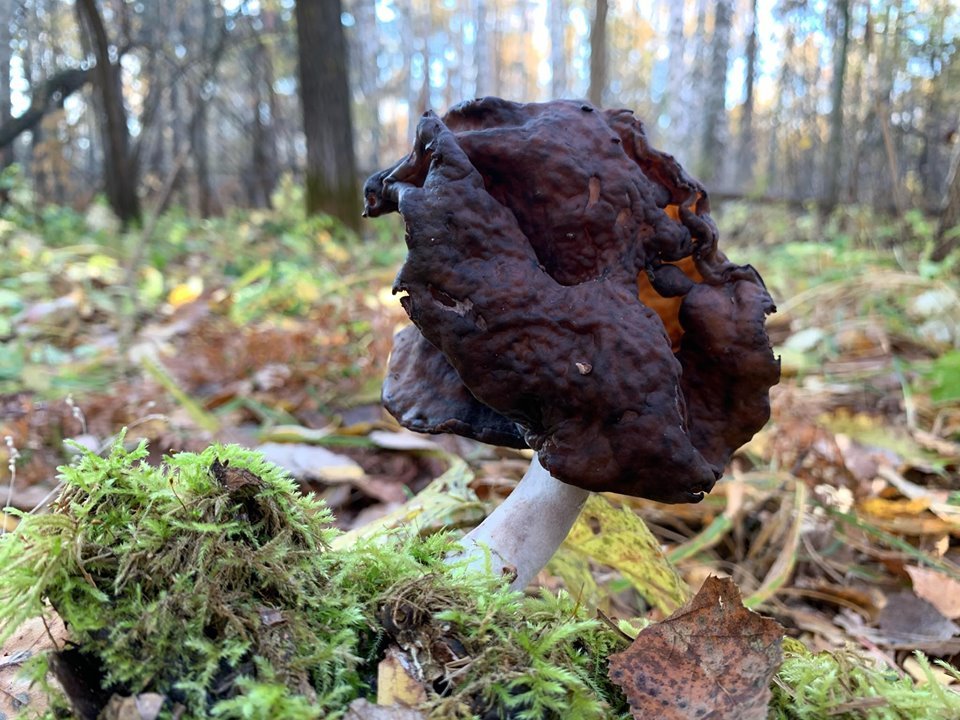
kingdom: Fungi
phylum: Ascomycota
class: Pezizomycetes
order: Pezizales
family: Discinaceae
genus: Gyromitra
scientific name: Gyromitra infula
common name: Pouched false morel
